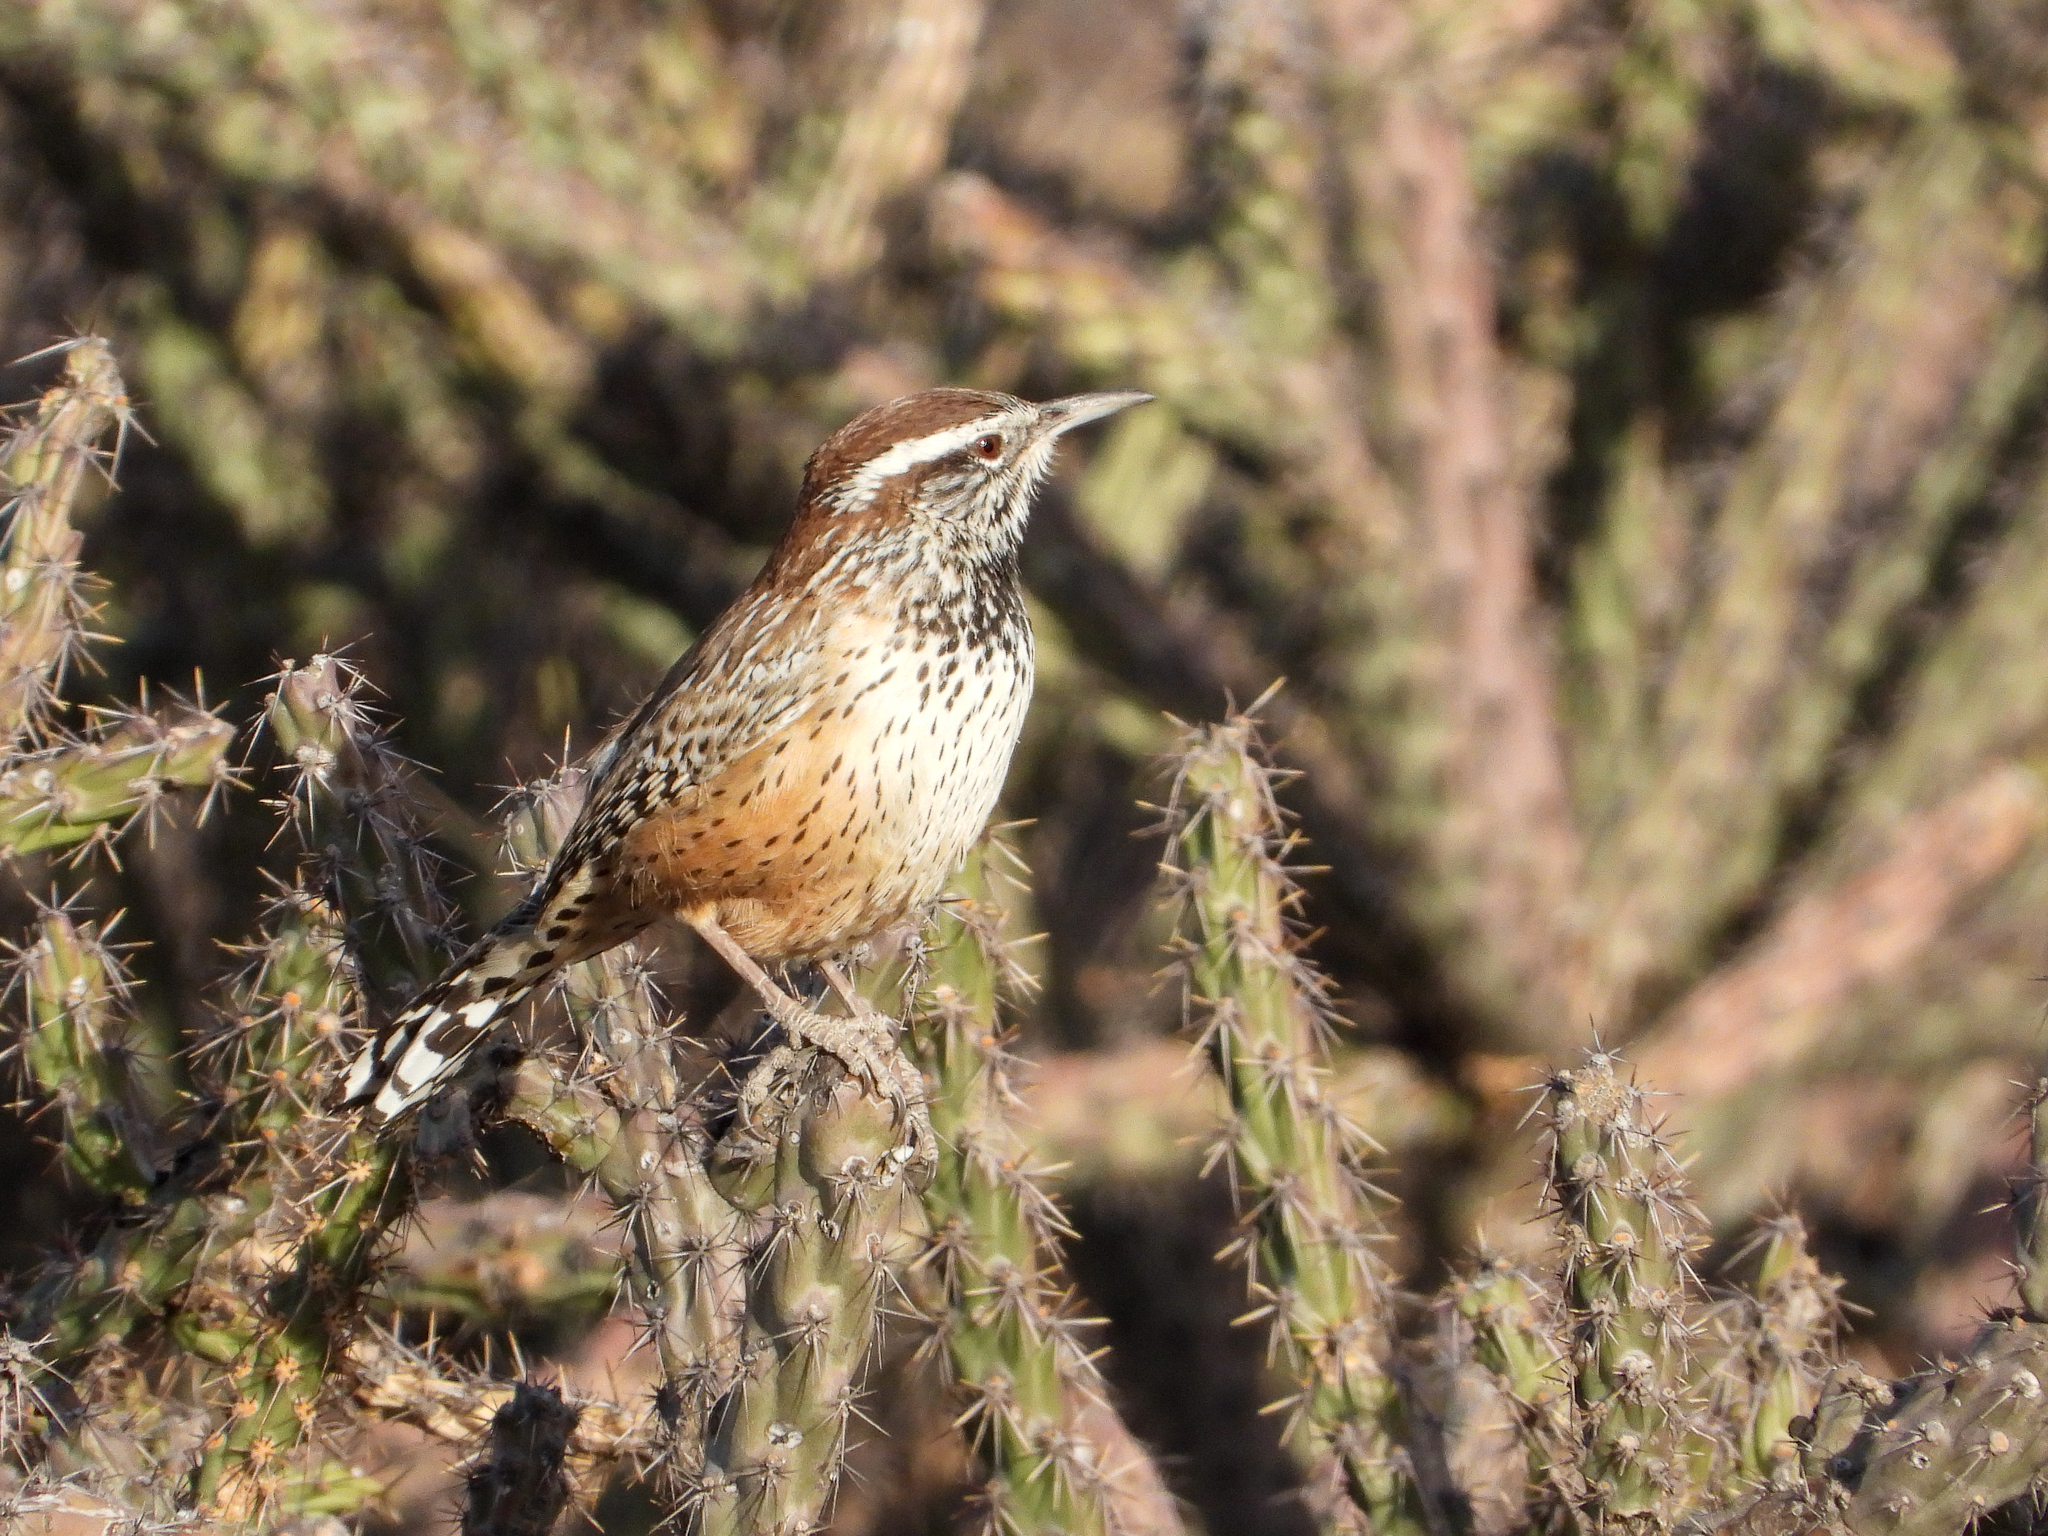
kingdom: Animalia
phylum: Chordata
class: Aves
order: Passeriformes
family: Troglodytidae
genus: Campylorhynchus
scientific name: Campylorhynchus brunneicapillus
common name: Cactus wren
